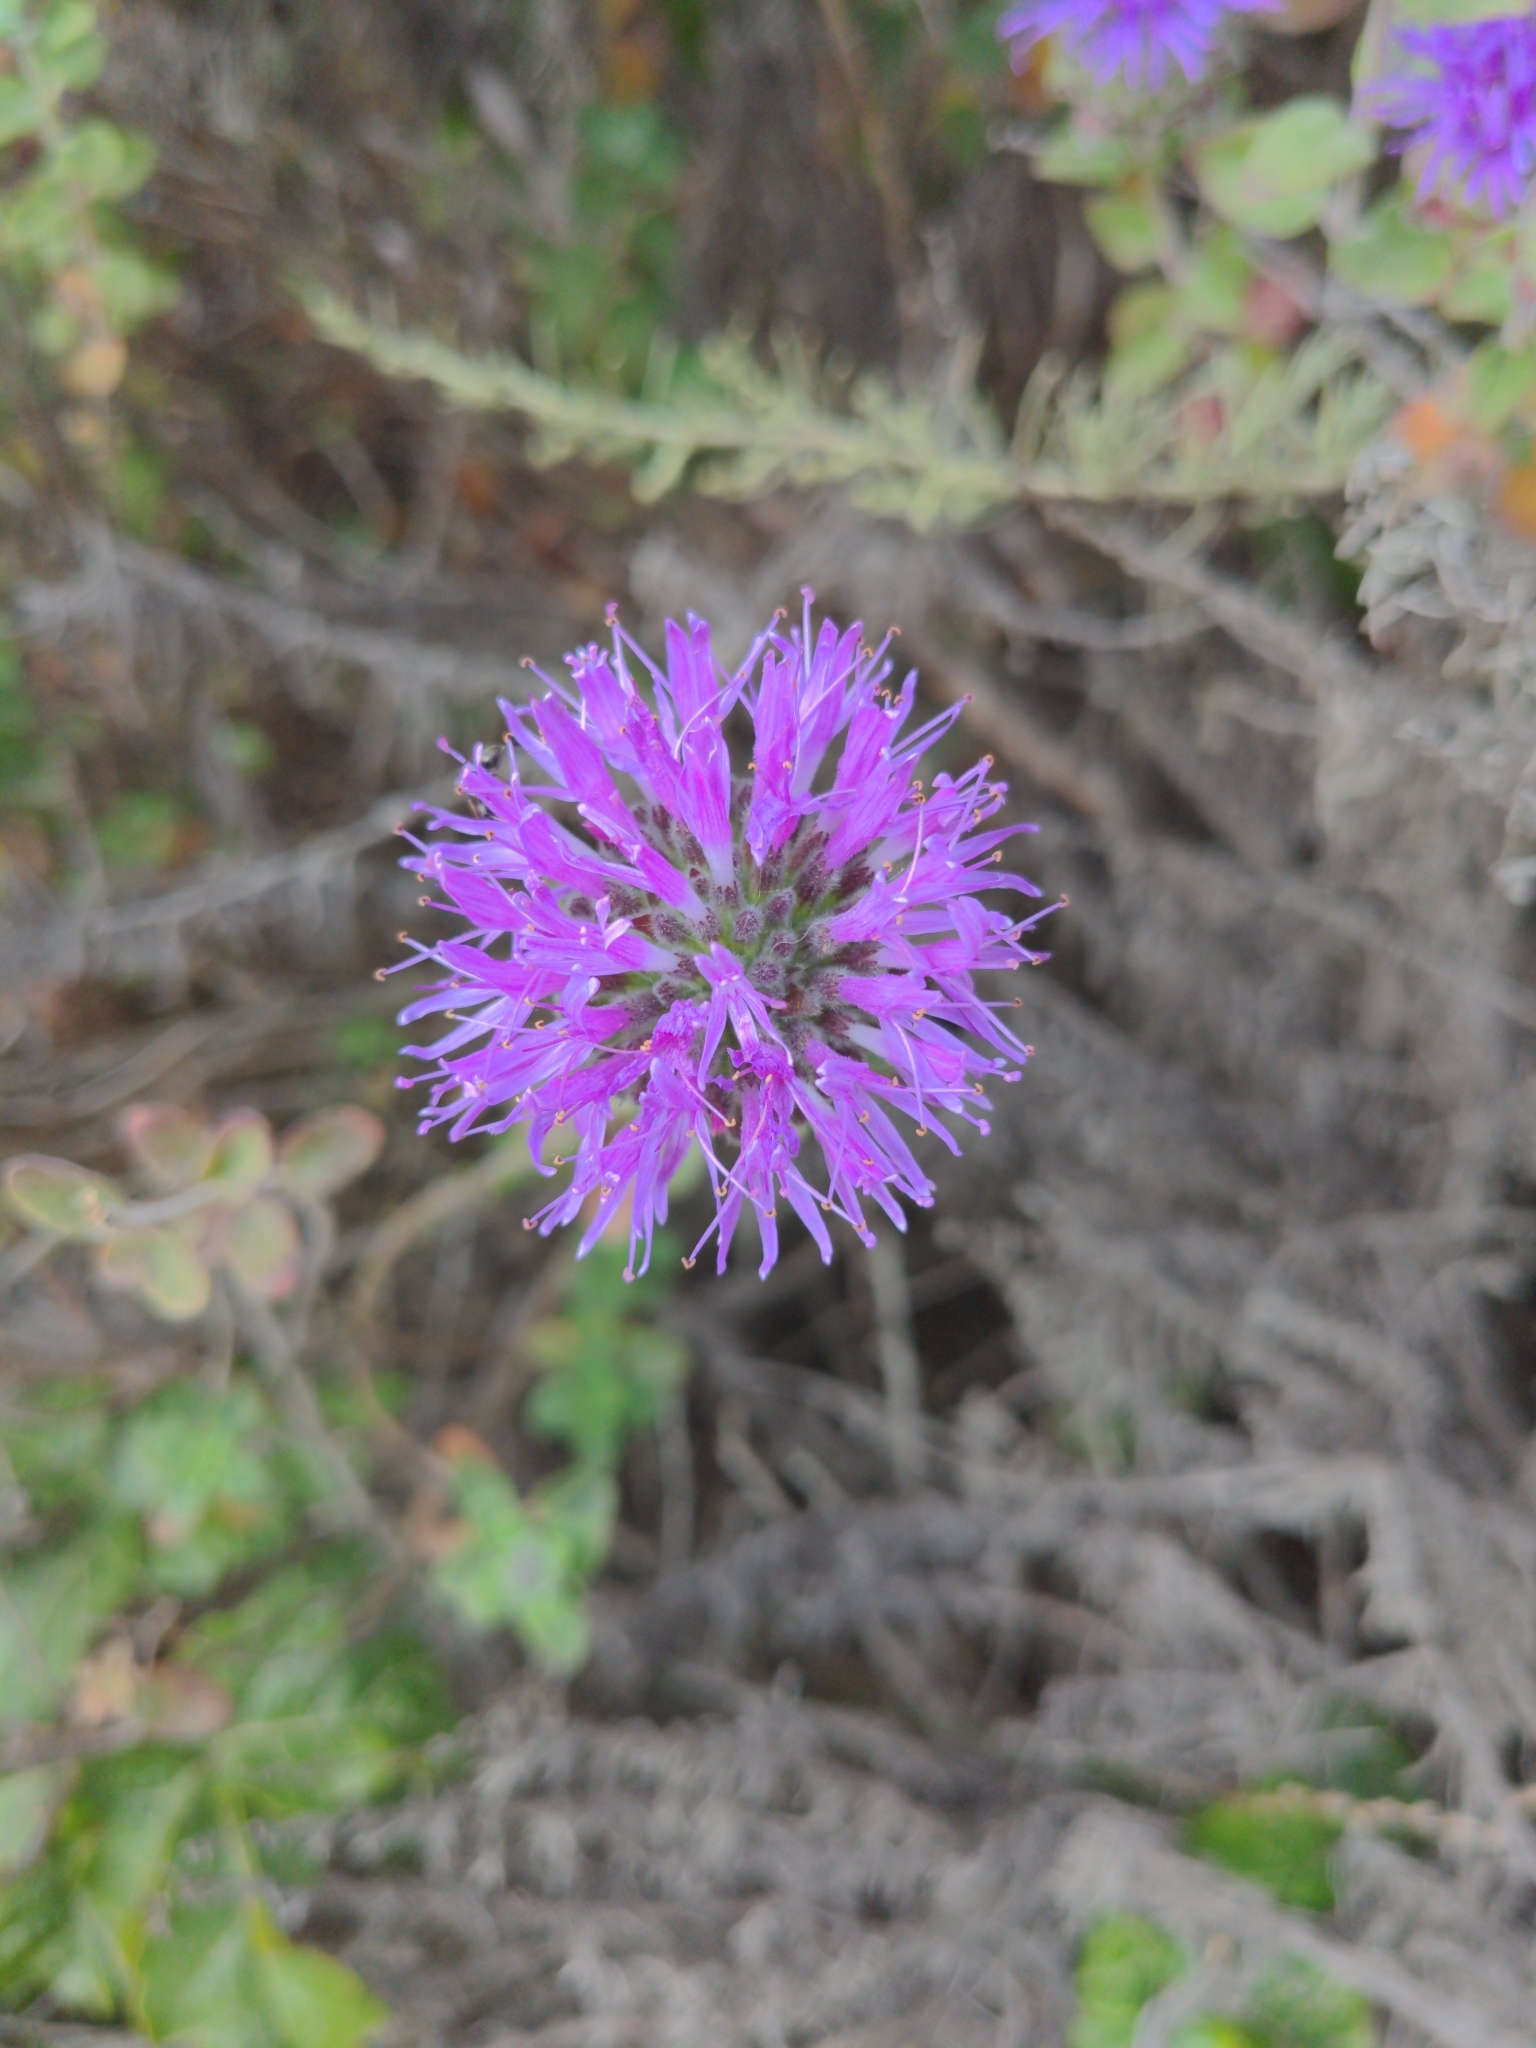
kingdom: Plantae
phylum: Tracheophyta
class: Magnoliopsida
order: Lamiales
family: Lamiaceae
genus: Monardella
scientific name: Monardella odoratissima
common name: Pacific monardella
